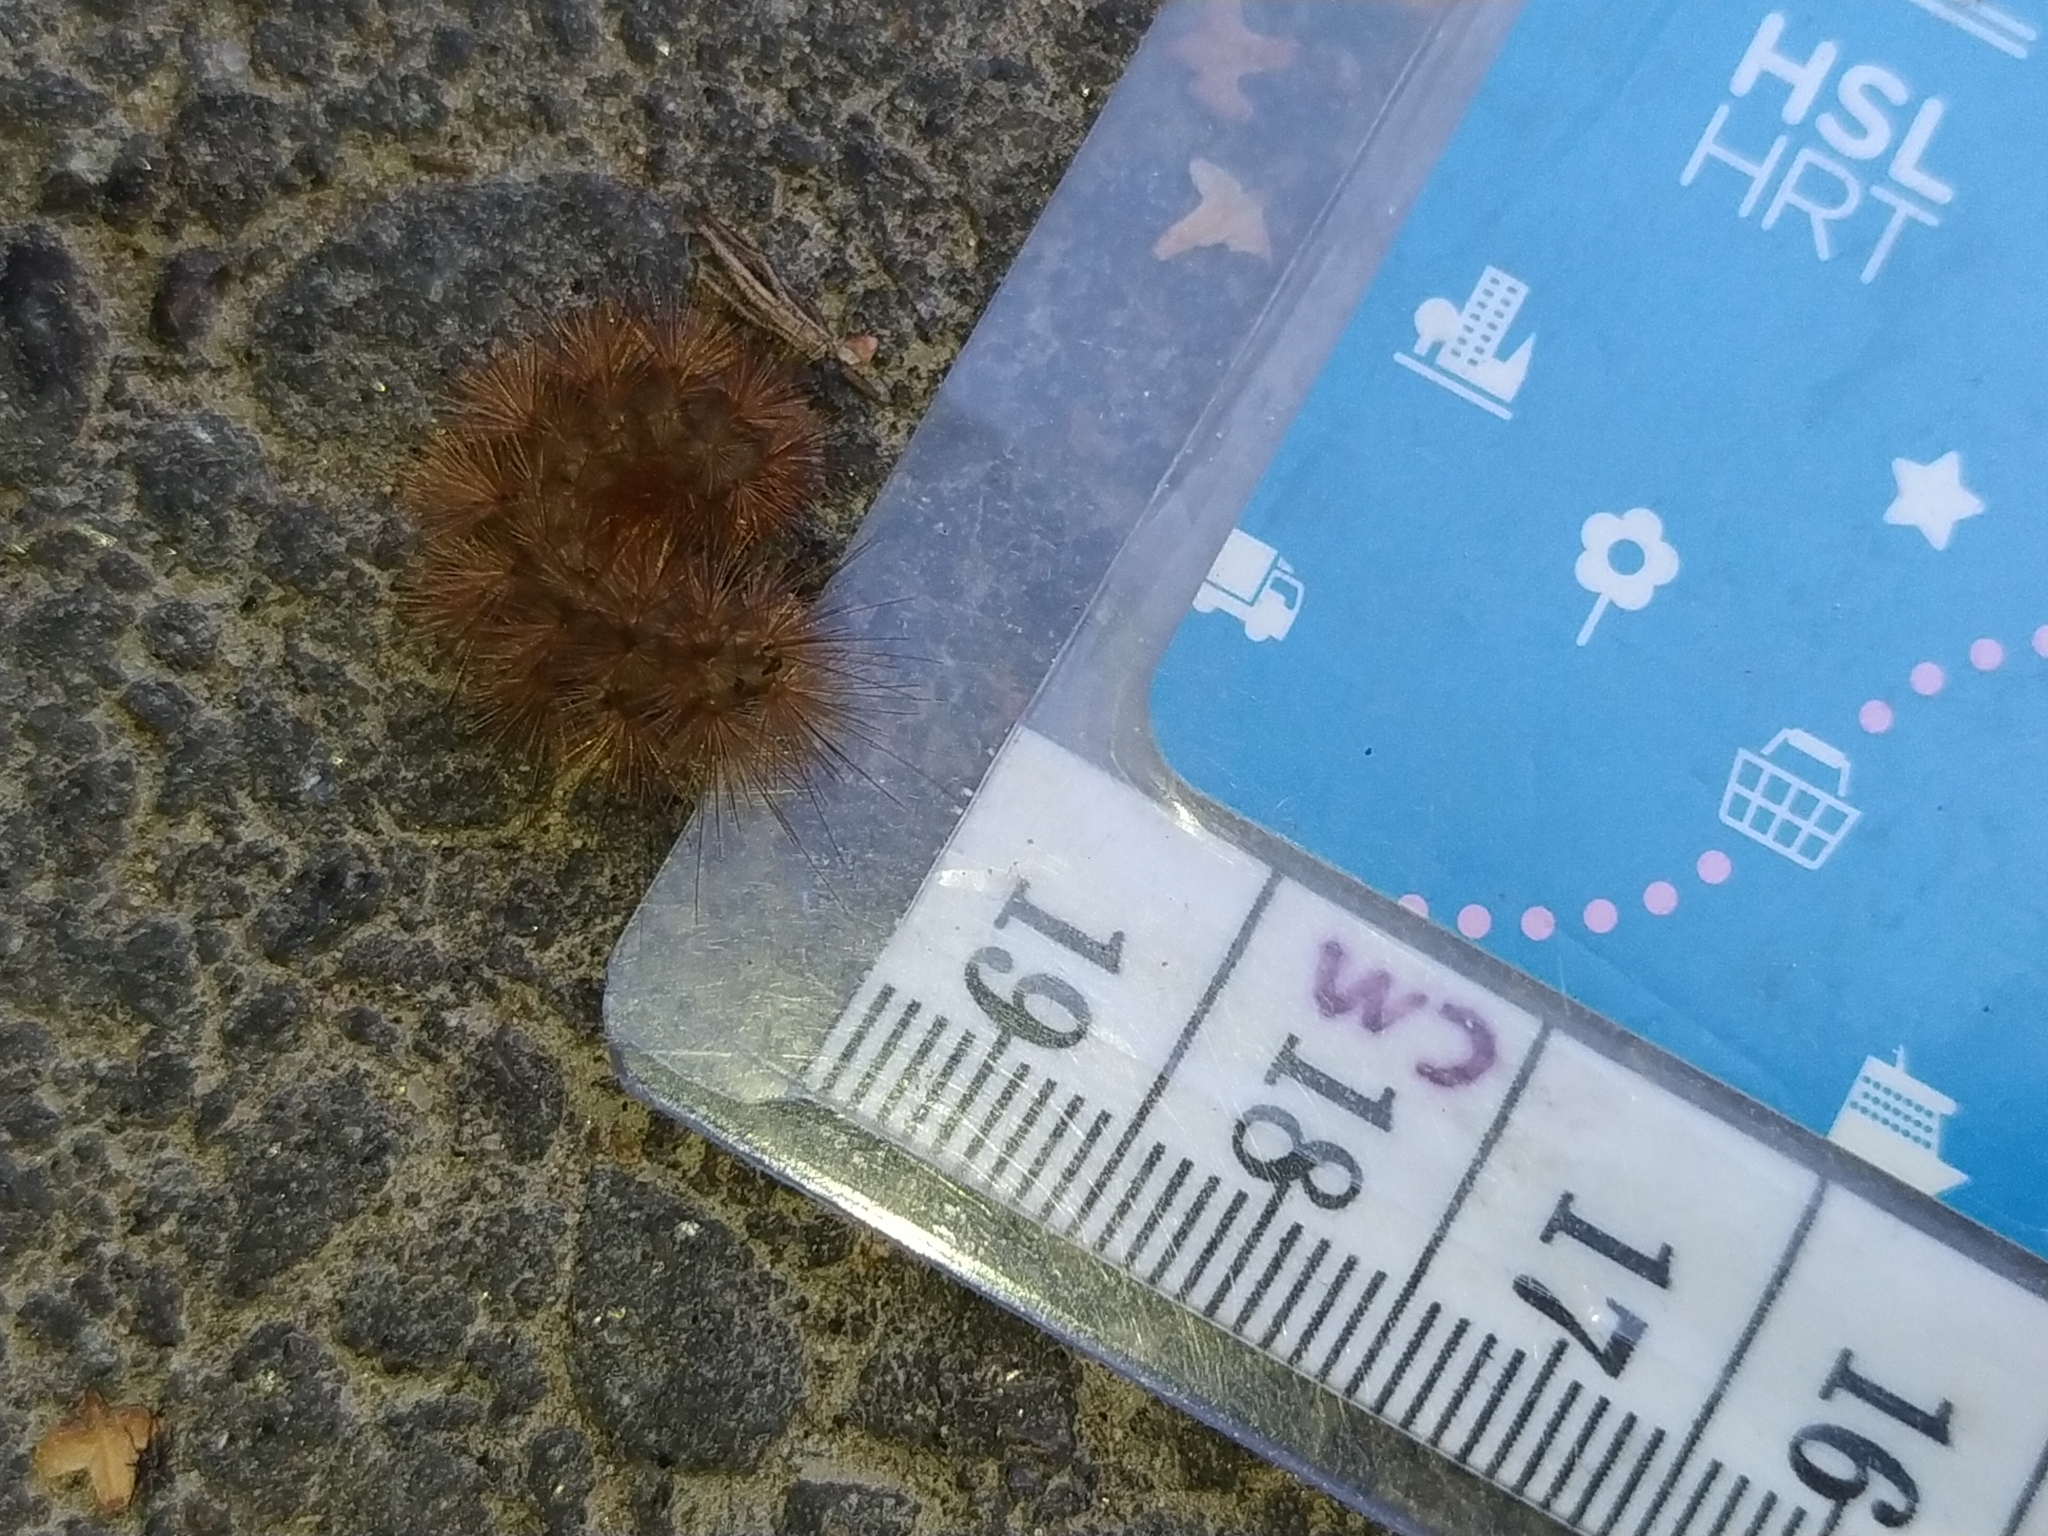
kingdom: Animalia
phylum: Arthropoda
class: Insecta
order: Lepidoptera
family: Erebidae
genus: Phragmatobia
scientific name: Phragmatobia fuliginosa
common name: Ruby tiger
